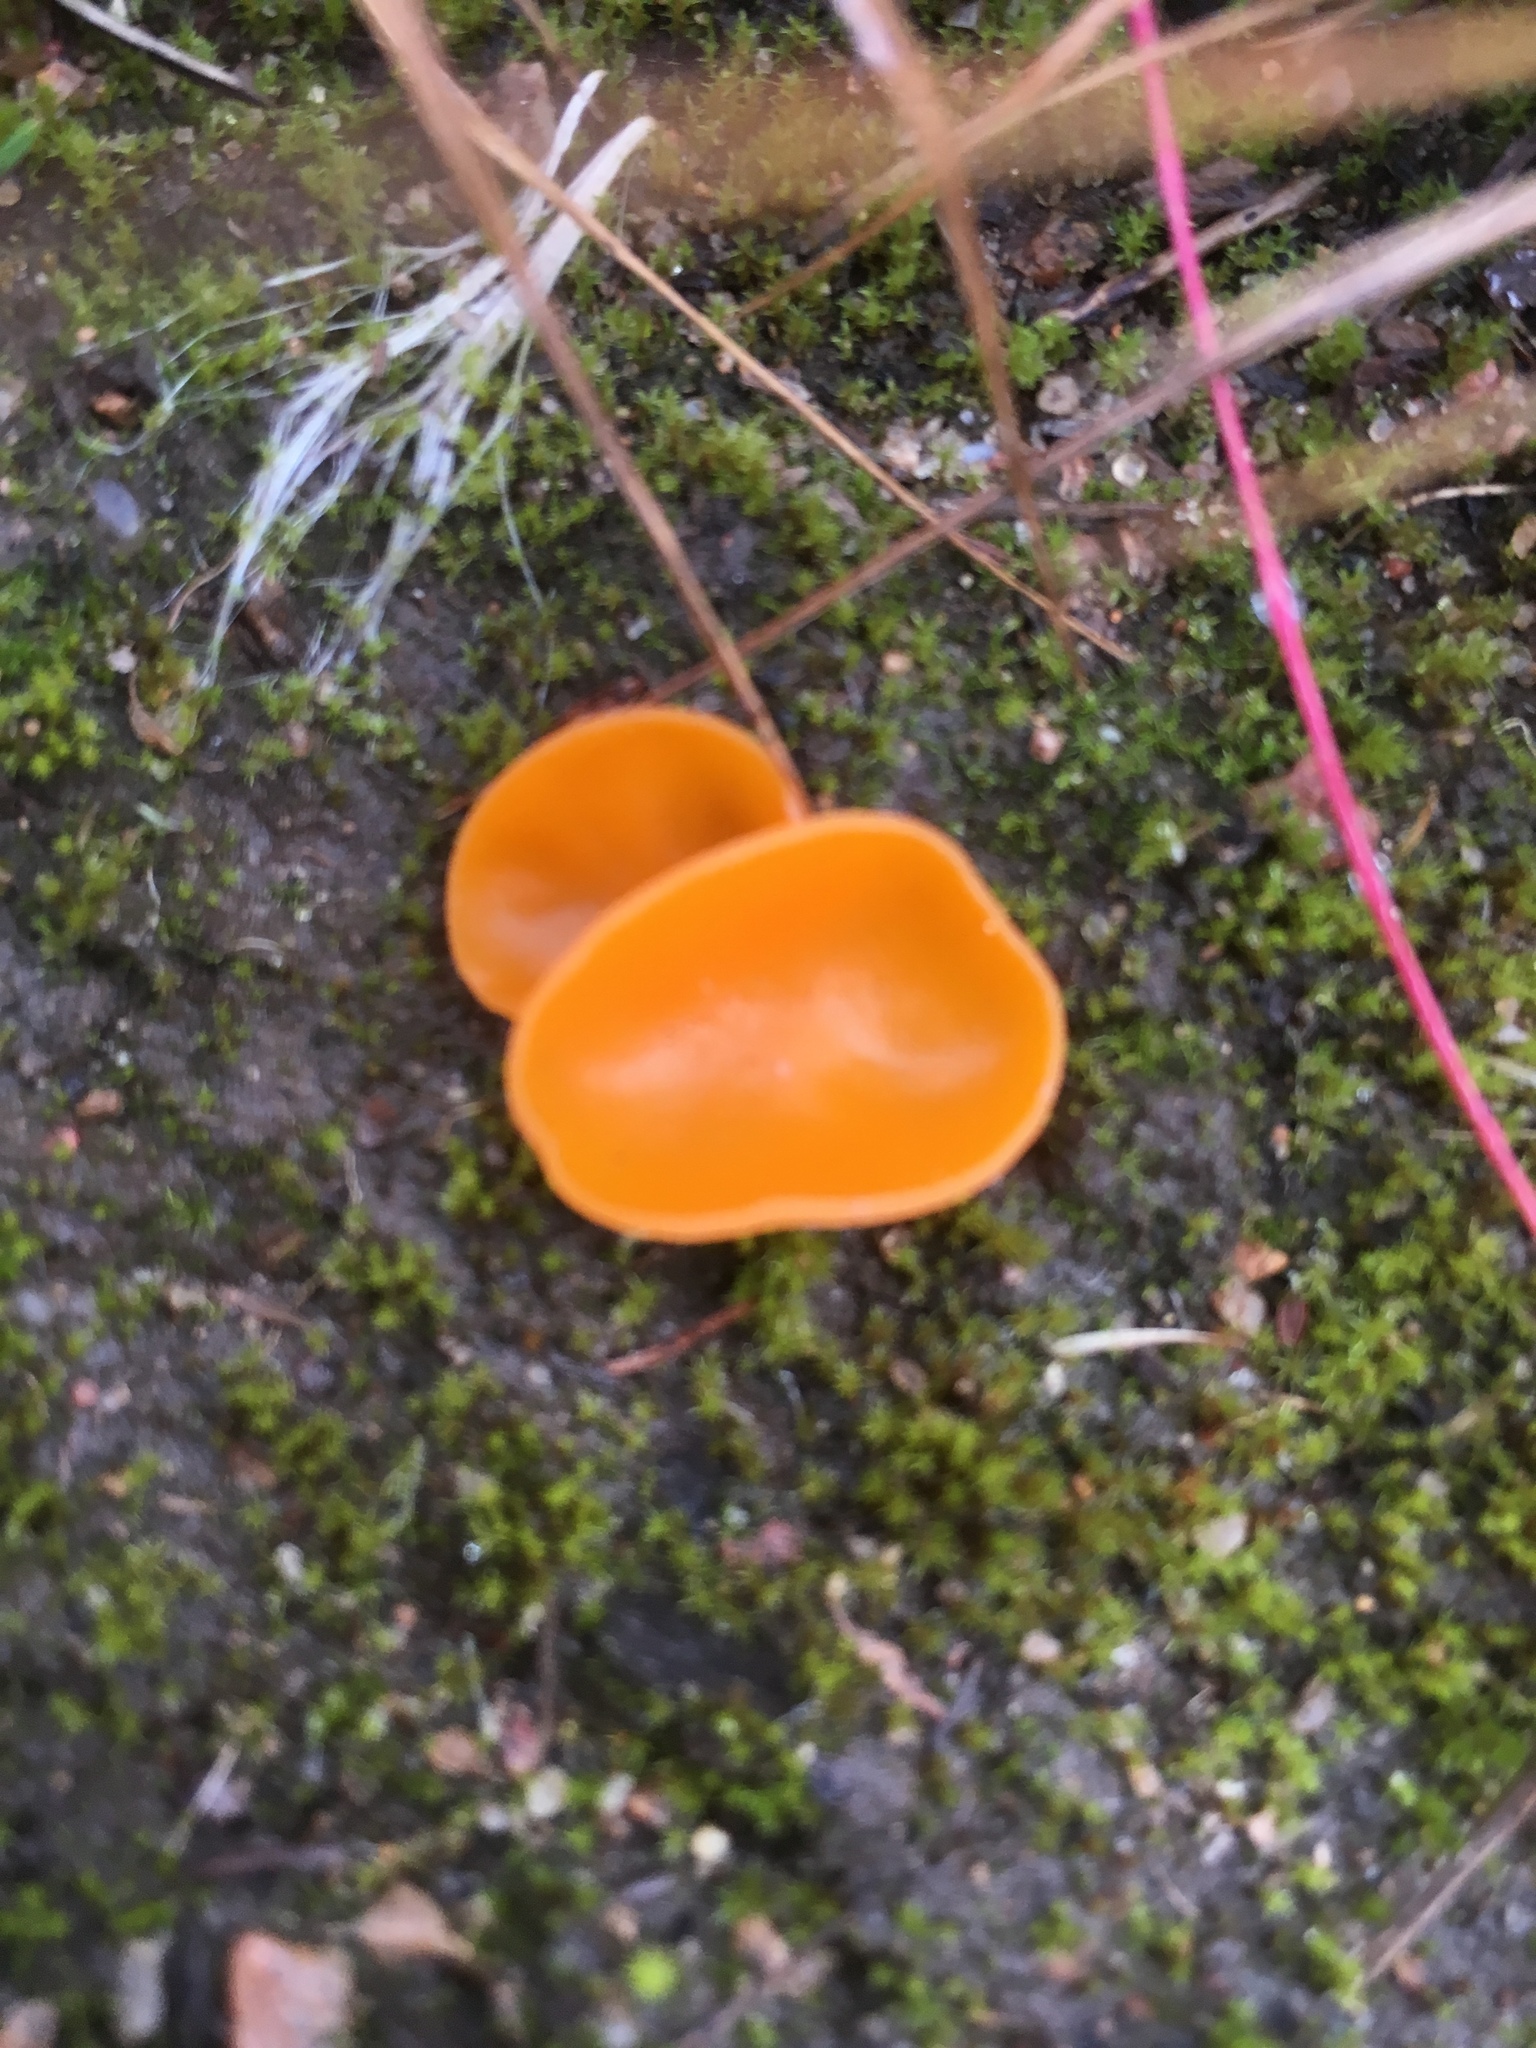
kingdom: Fungi
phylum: Ascomycota
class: Pezizomycetes
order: Pezizales
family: Pyronemataceae
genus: Aleuria
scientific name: Aleuria aurantia
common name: Orange peel fungus
